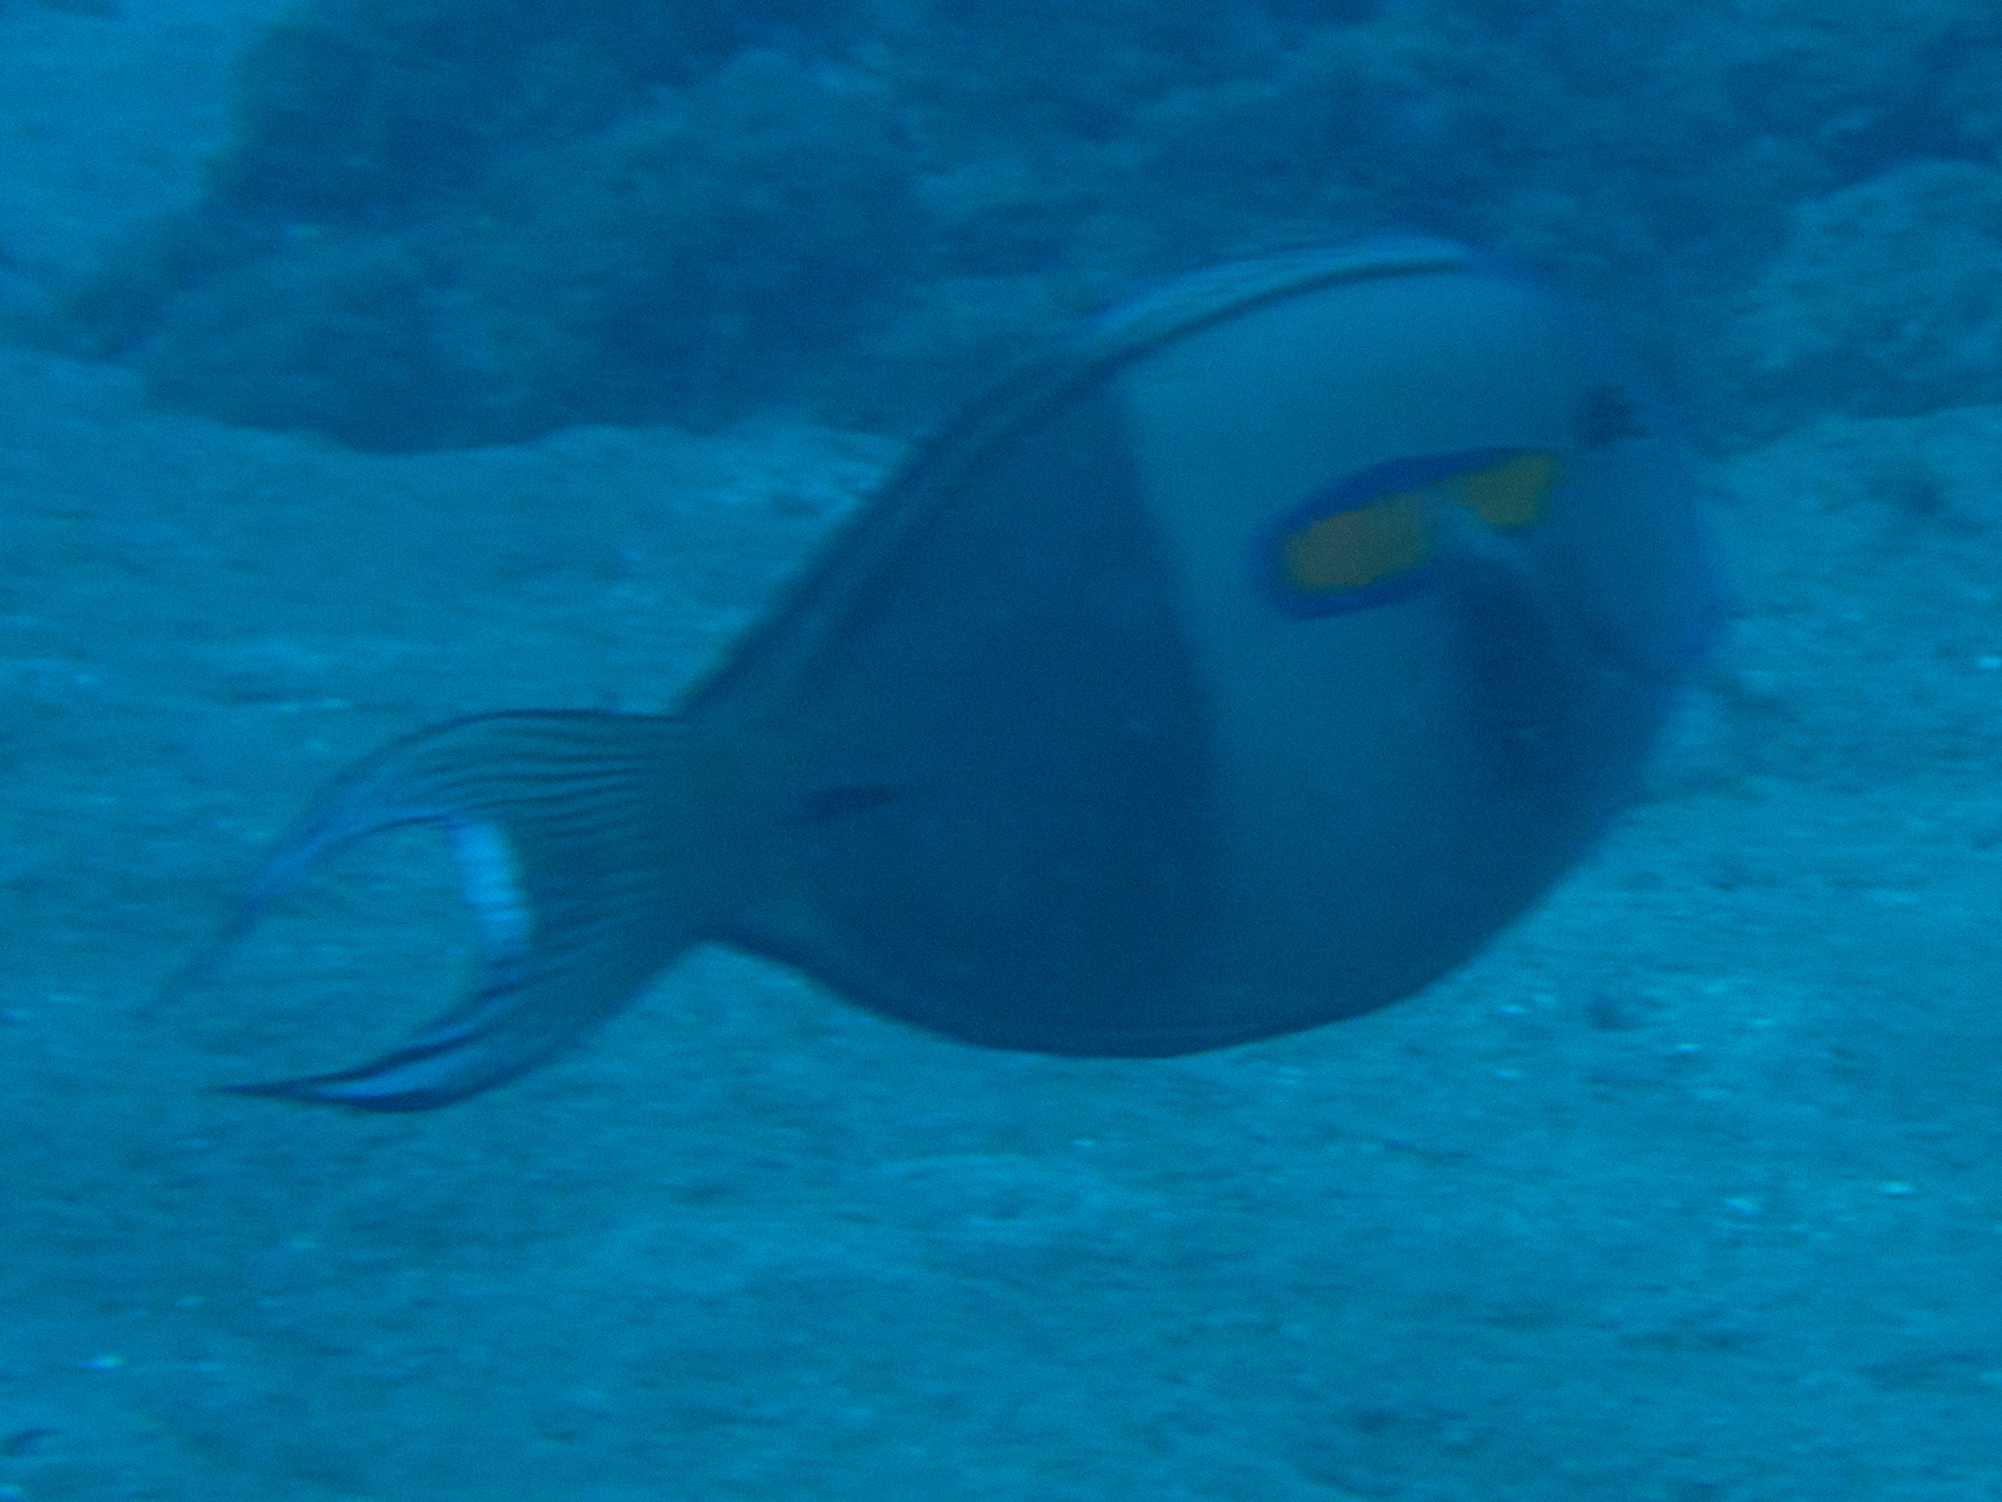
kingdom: Animalia
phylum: Chordata
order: Perciformes
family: Acanthuridae
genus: Acanthurus
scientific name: Acanthurus olivaceus
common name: Gendarme fish
